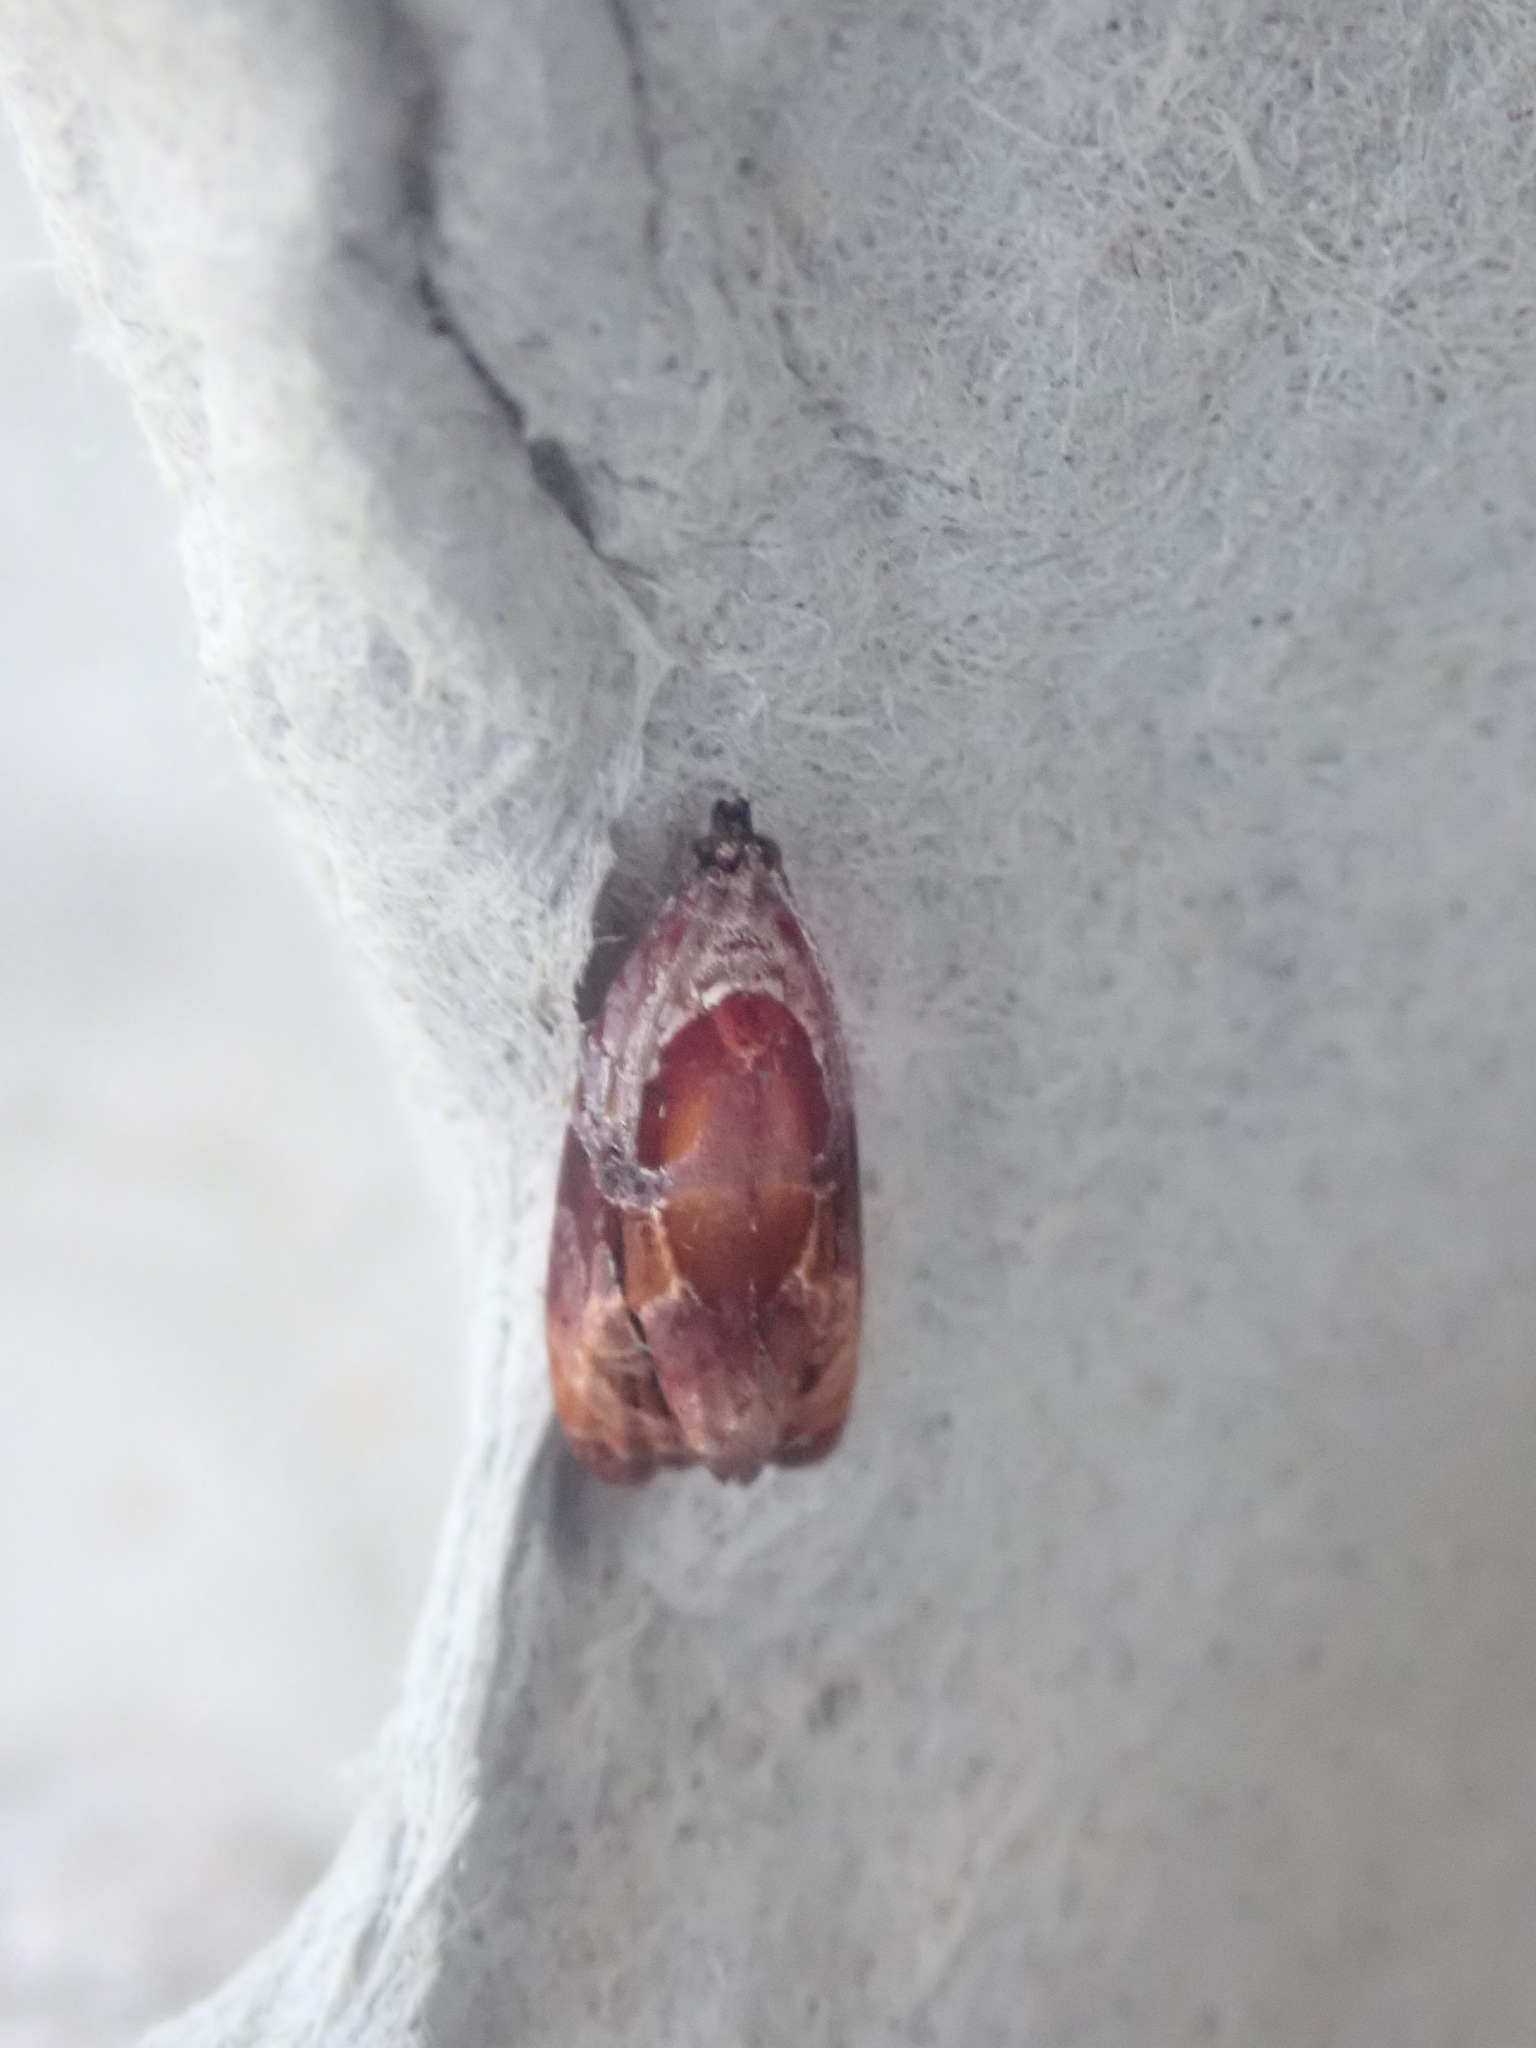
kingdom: Animalia
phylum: Arthropoda
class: Insecta
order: Lepidoptera
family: Tortricidae
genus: Zomaria
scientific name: Zomaria interruptolineana
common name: Broken-lined zomaria moth
